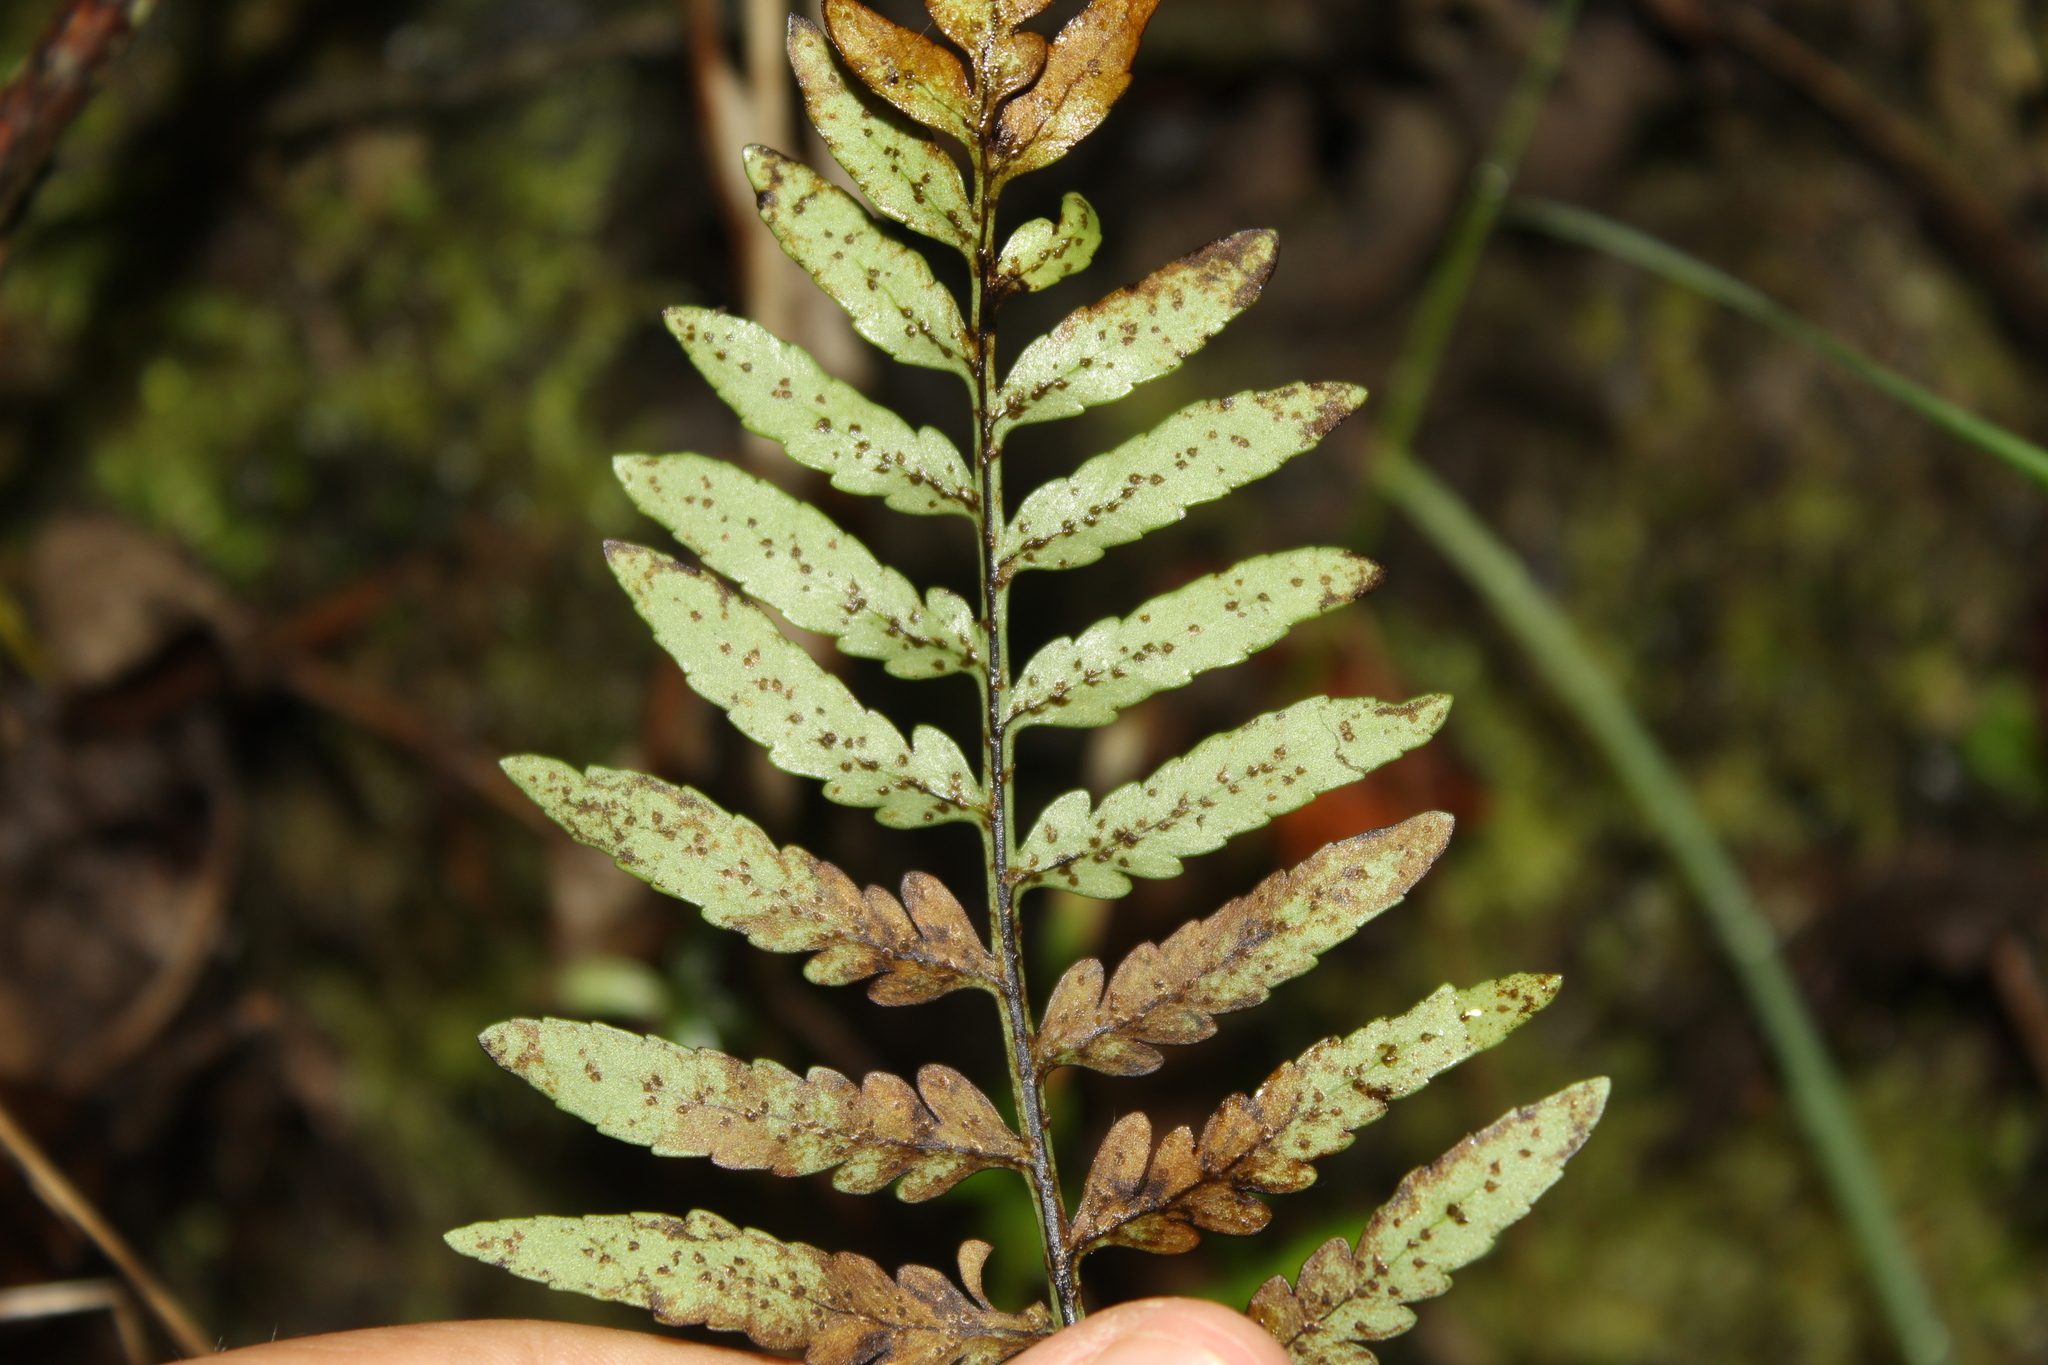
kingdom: Plantae
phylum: Tracheophyta
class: Polypodiopsida
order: Polypodiales
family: Polypodiaceae
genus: Pleopeltis
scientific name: Pleopeltis murora
